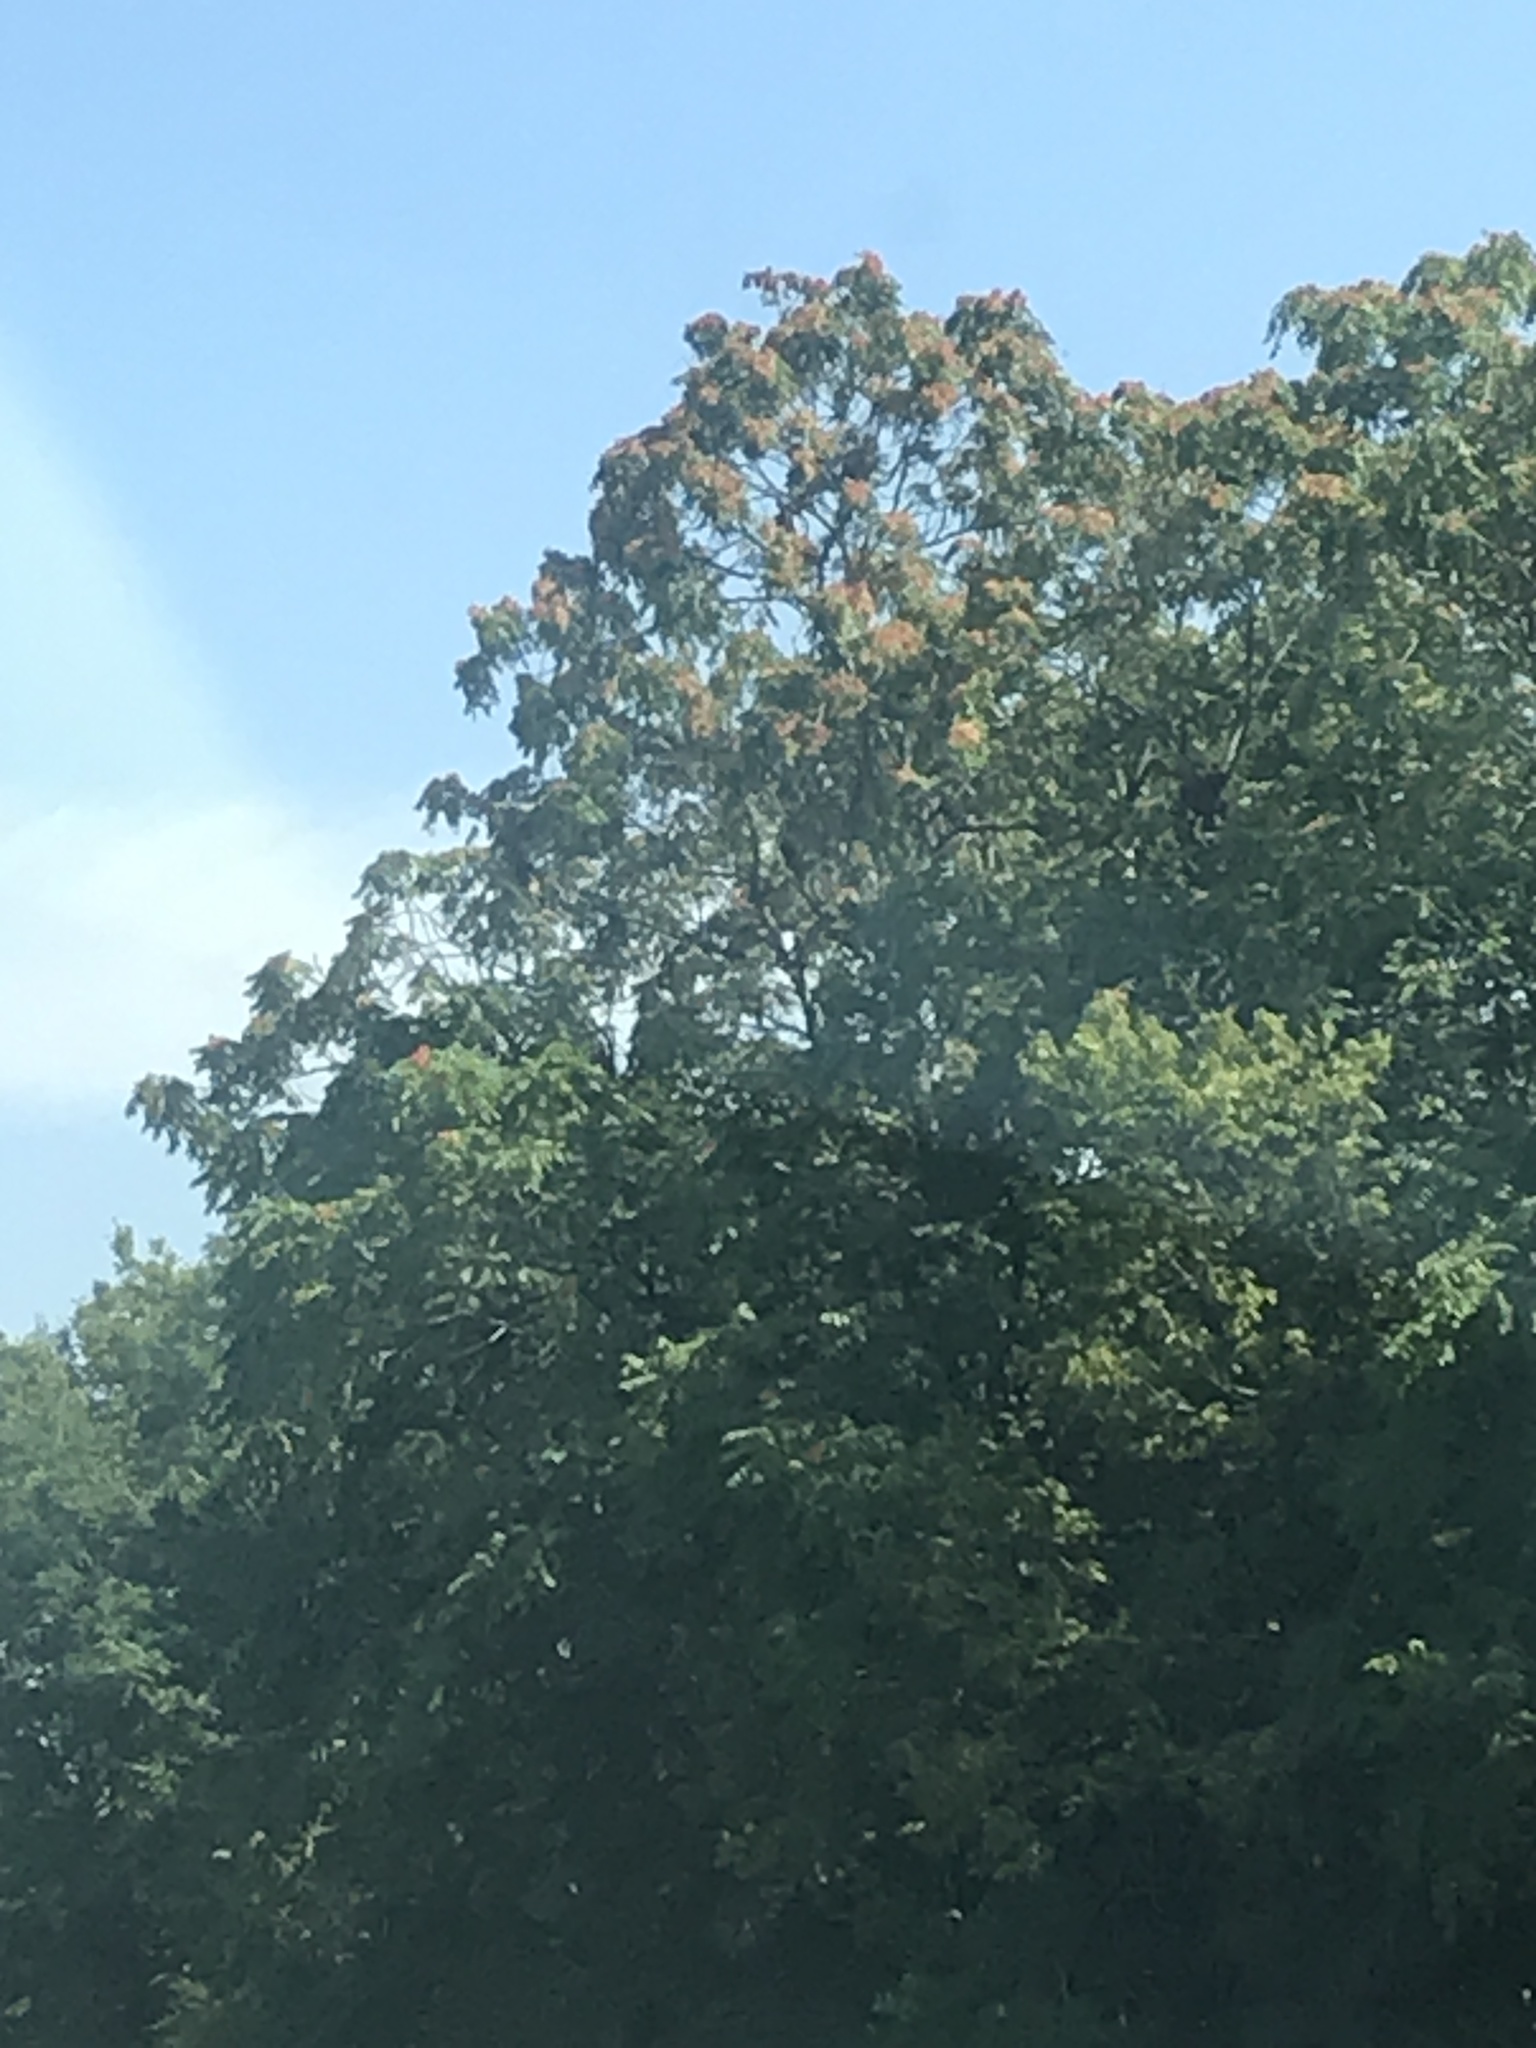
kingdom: Plantae
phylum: Tracheophyta
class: Magnoliopsida
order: Sapindales
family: Simaroubaceae
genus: Ailanthus
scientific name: Ailanthus altissima
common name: Tree-of-heaven
